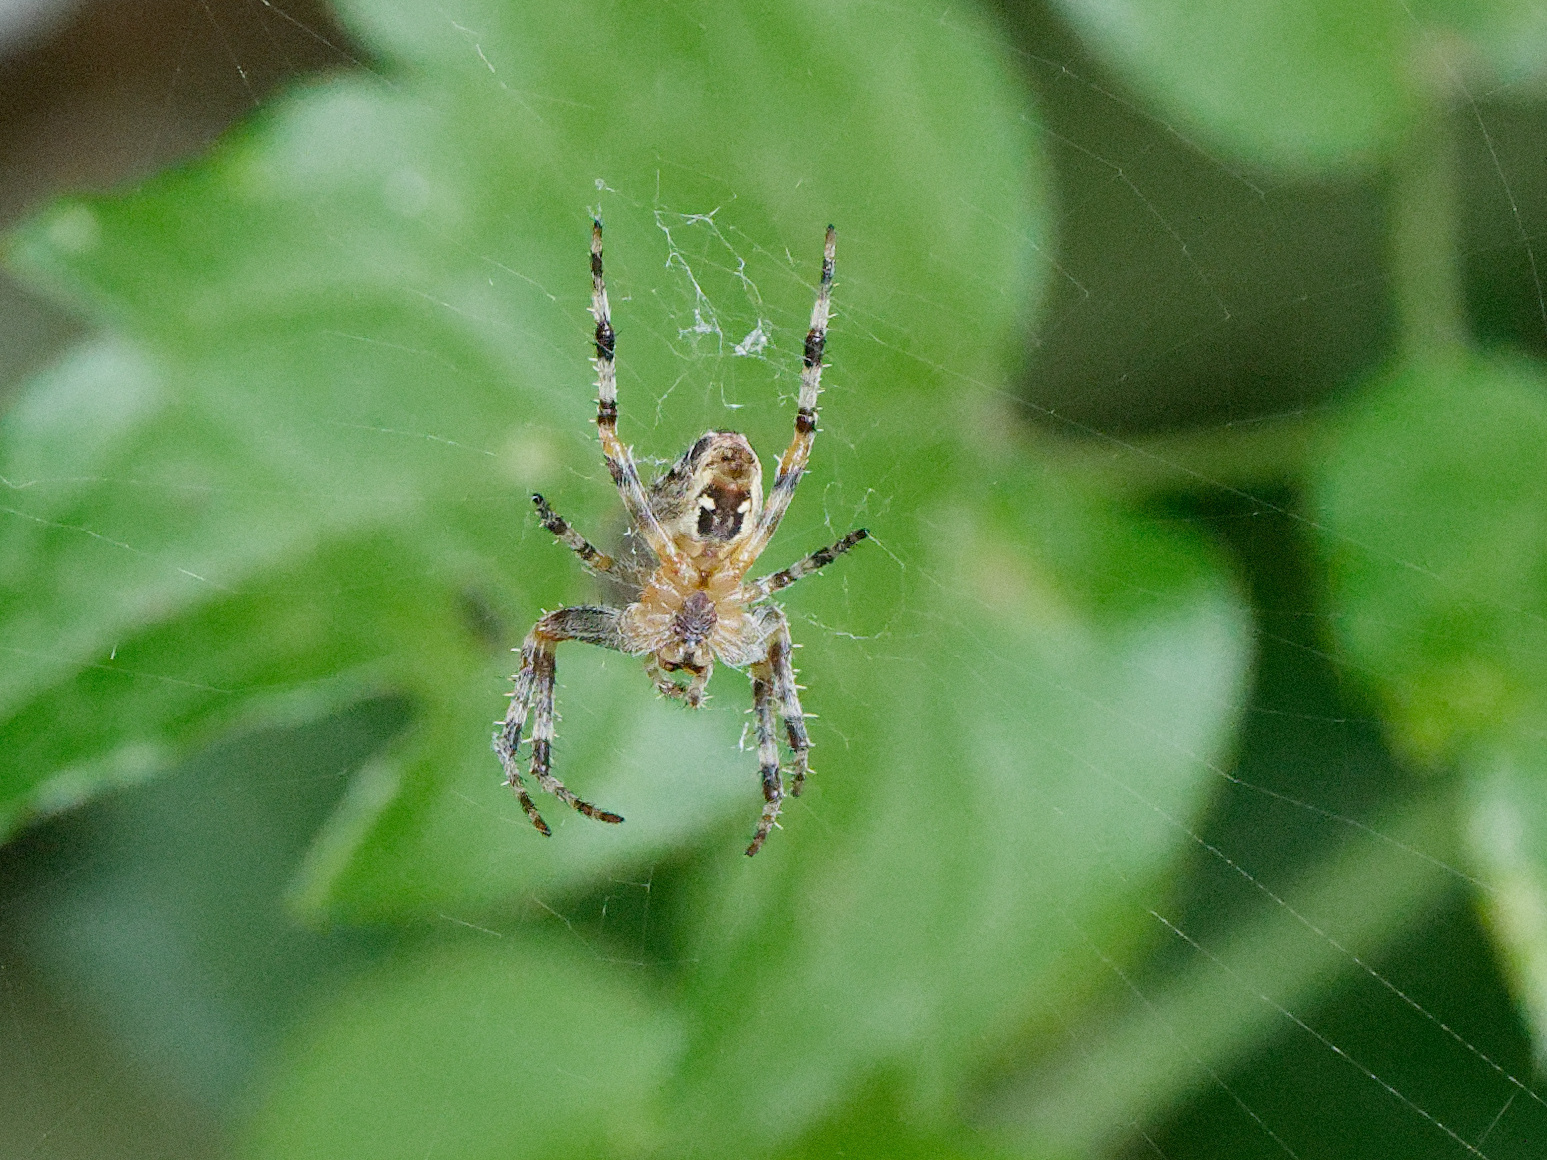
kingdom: Animalia
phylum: Arthropoda
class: Arachnida
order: Araneae
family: Araneidae
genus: Araneus
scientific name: Araneus diadematus
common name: Cross orbweaver
